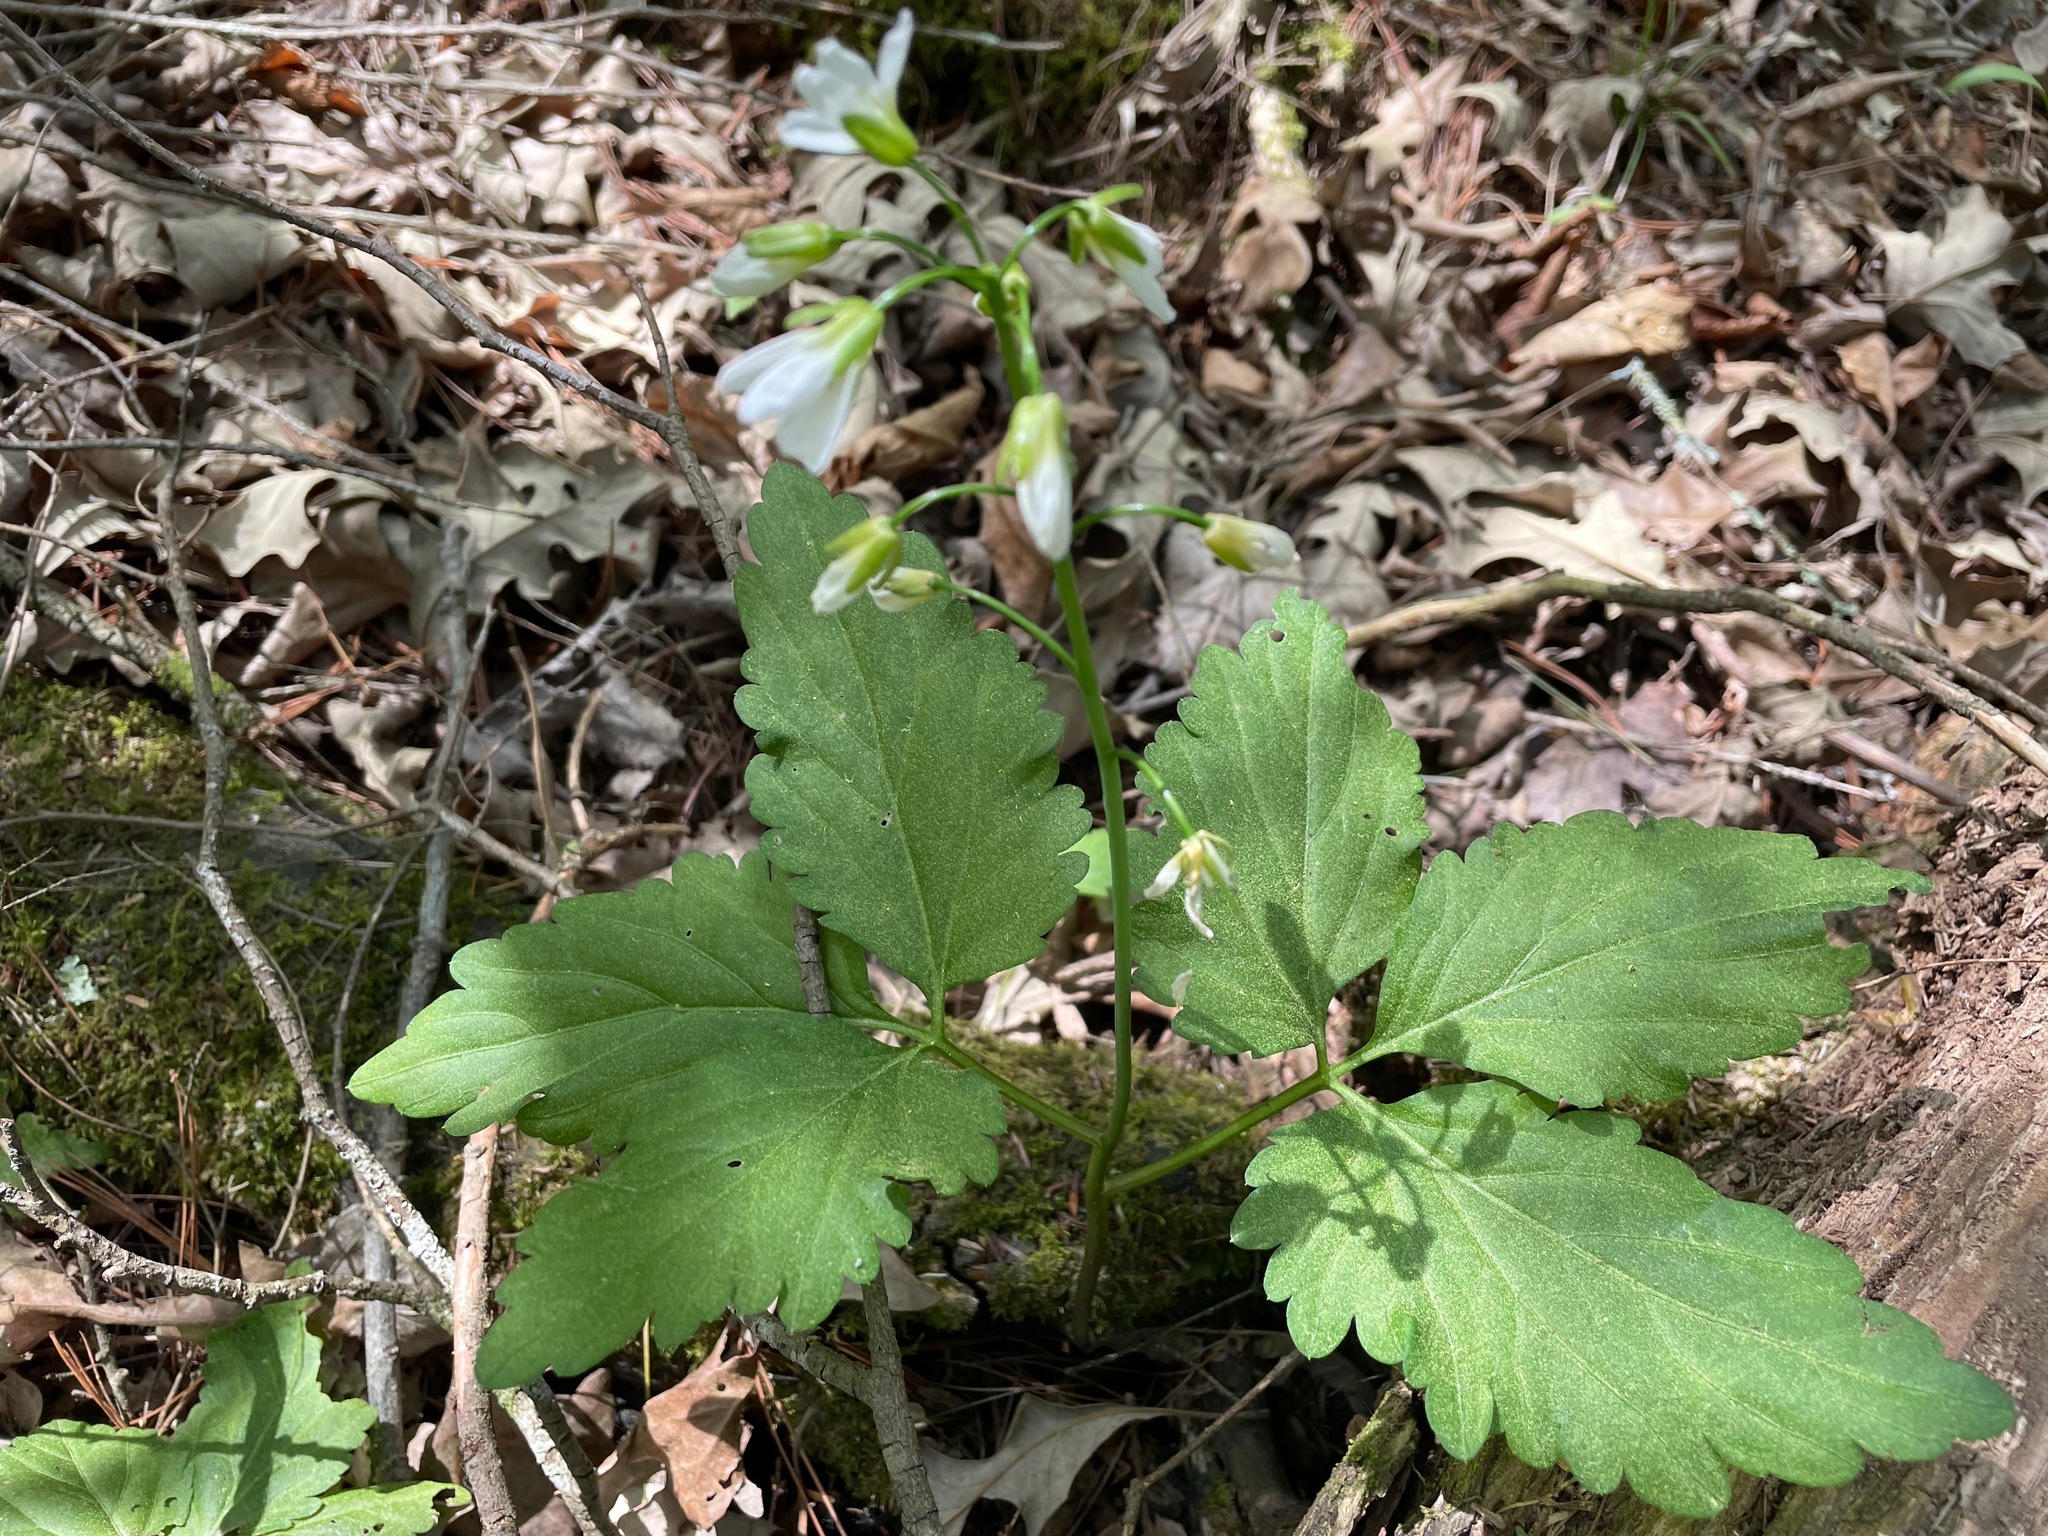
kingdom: Plantae
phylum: Tracheophyta
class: Magnoliopsida
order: Brassicales
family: Brassicaceae
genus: Cardamine
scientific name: Cardamine diphylla
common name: Broad-leaved toothwort
